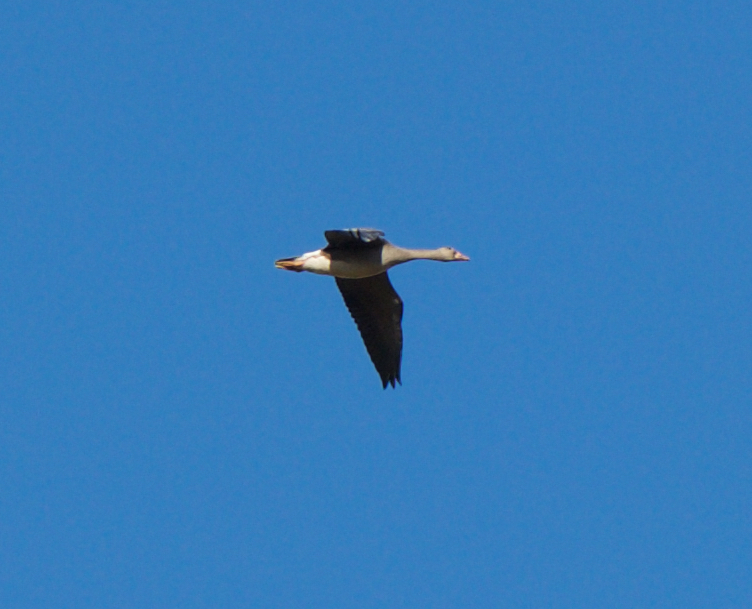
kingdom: Animalia
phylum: Chordata
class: Aves
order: Anseriformes
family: Anatidae
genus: Anser
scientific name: Anser albifrons
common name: Greater white-fronted goose
